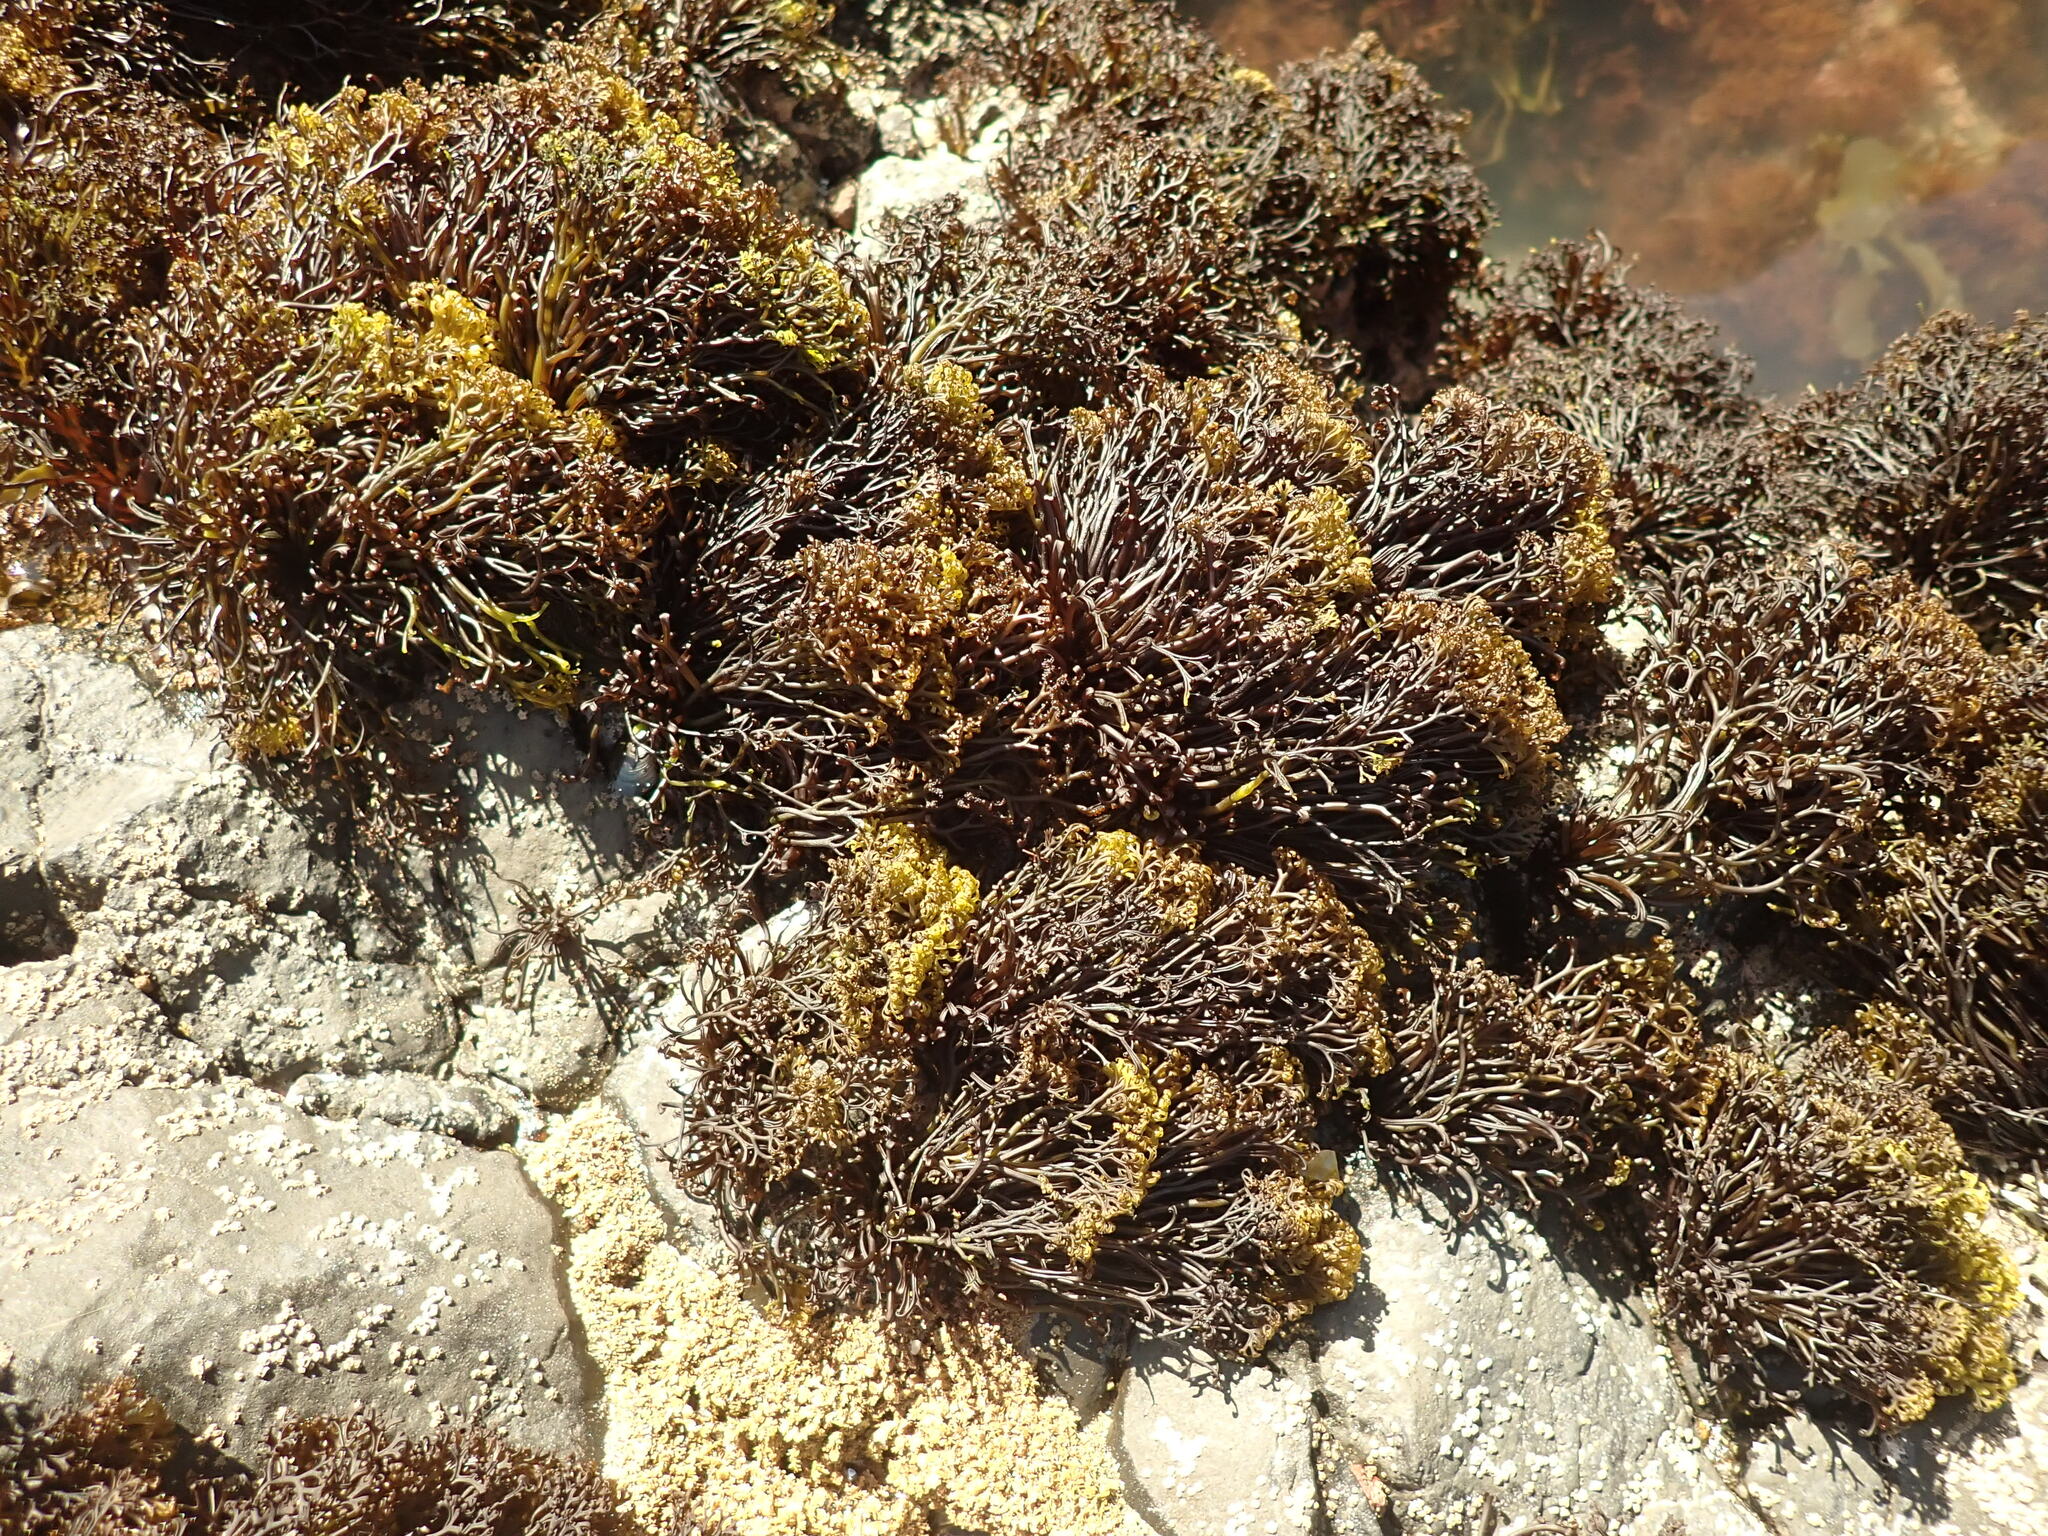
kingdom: Plantae
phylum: Rhodophyta
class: Florideophyceae
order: Gigartinales
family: Gigartinaceae
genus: Psilophycus
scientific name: Psilophycus alveatus
